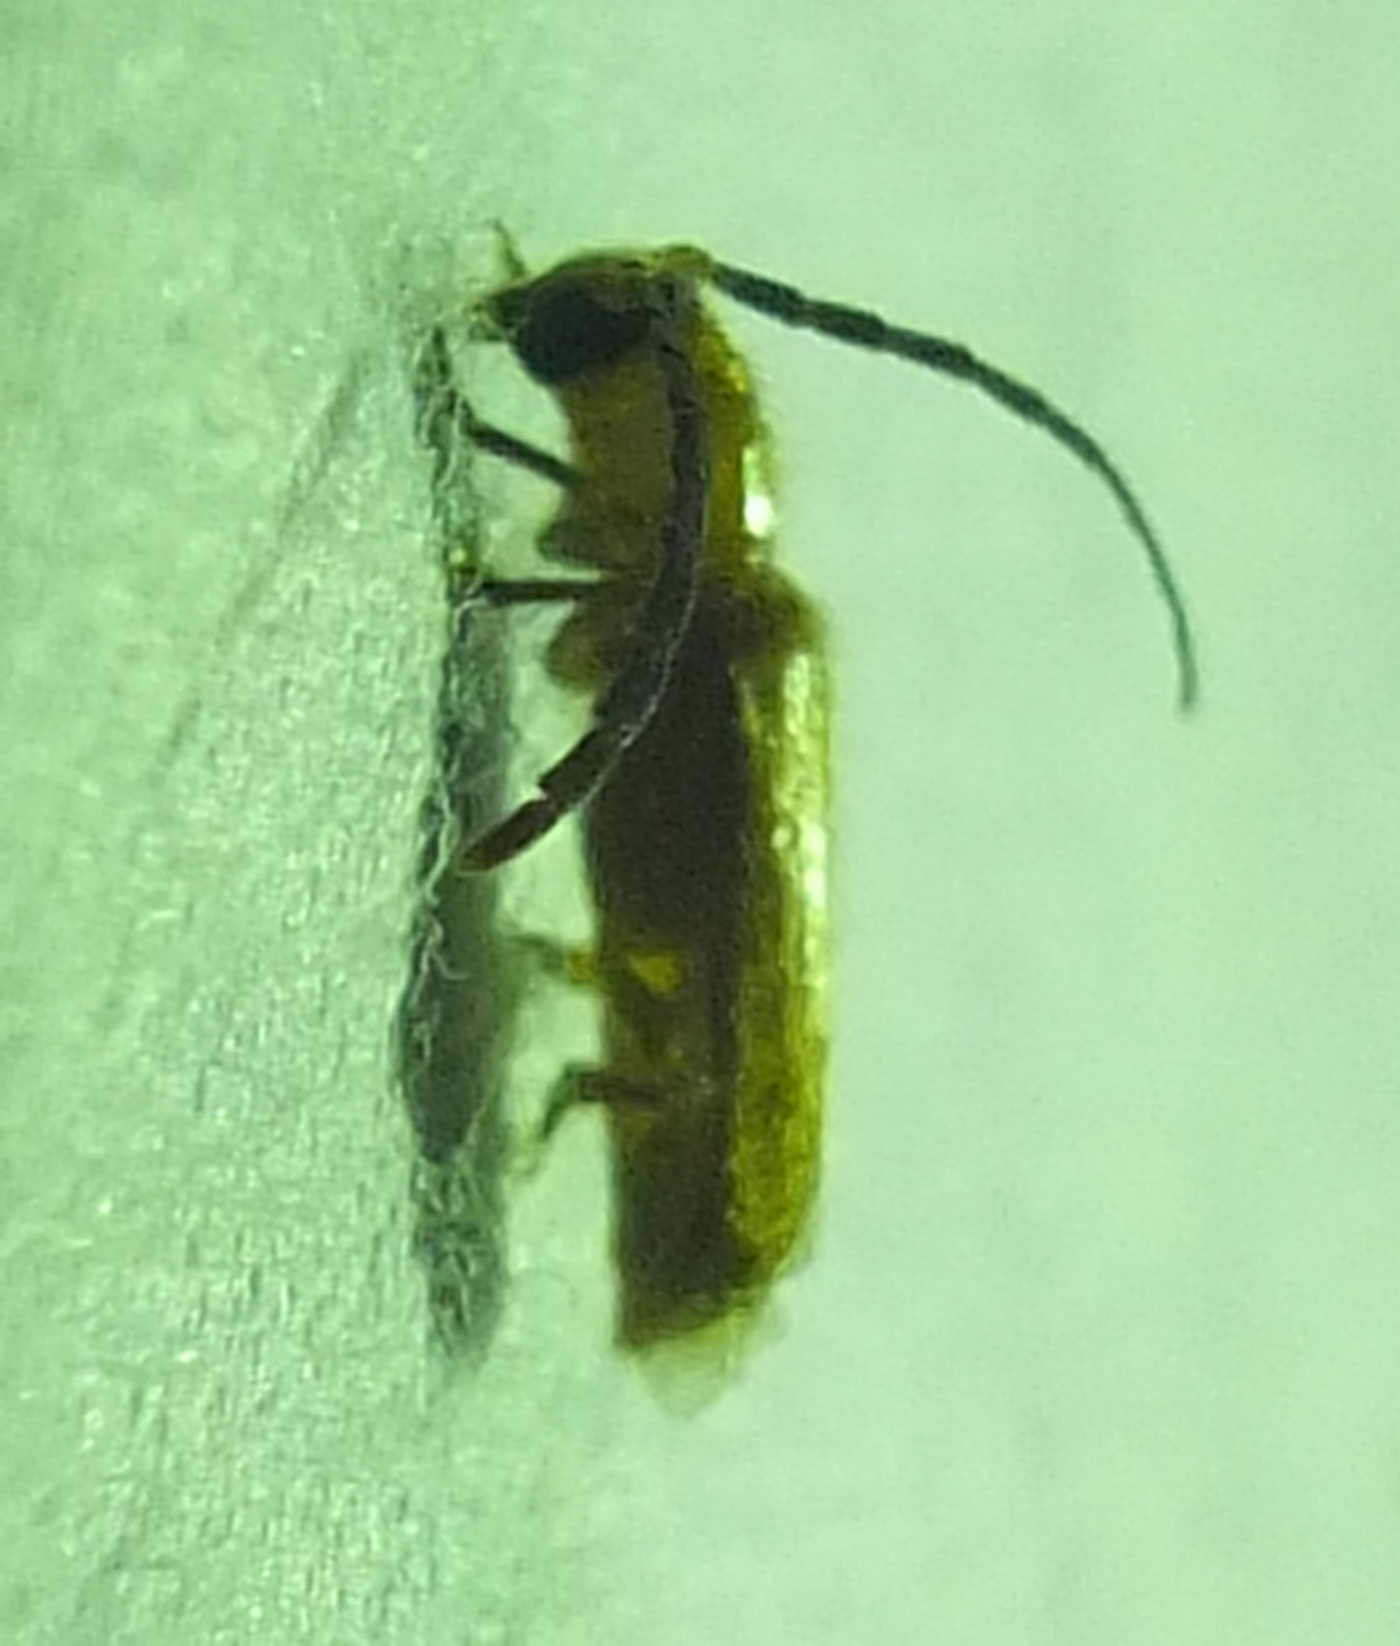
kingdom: Animalia
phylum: Arthropoda
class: Insecta
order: Coleoptera
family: Cerambycidae
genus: Daramus
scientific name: Daramus ochraceus
